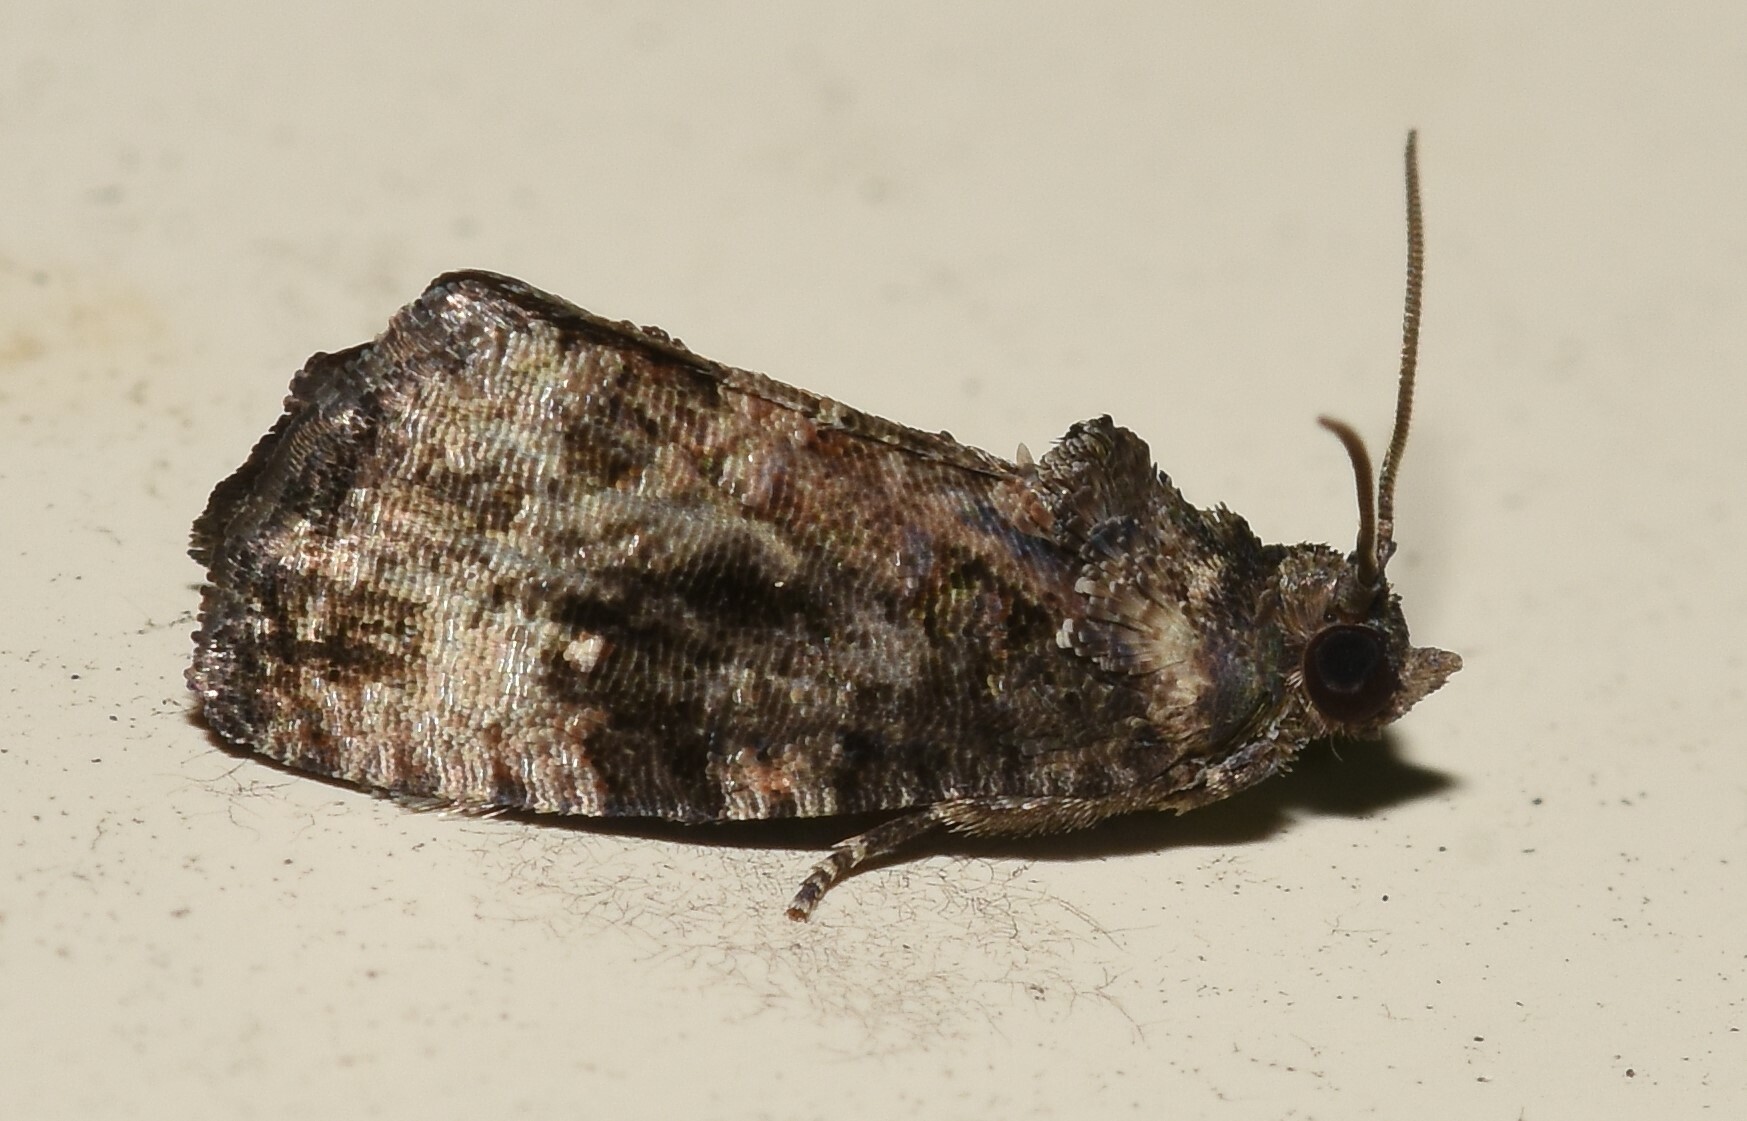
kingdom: Animalia
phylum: Arthropoda
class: Insecta
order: Lepidoptera
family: Tortricidae
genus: Gymnandrosoma
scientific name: Gymnandrosoma punctidiscanum
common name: Dotted ecdytolopha moth
